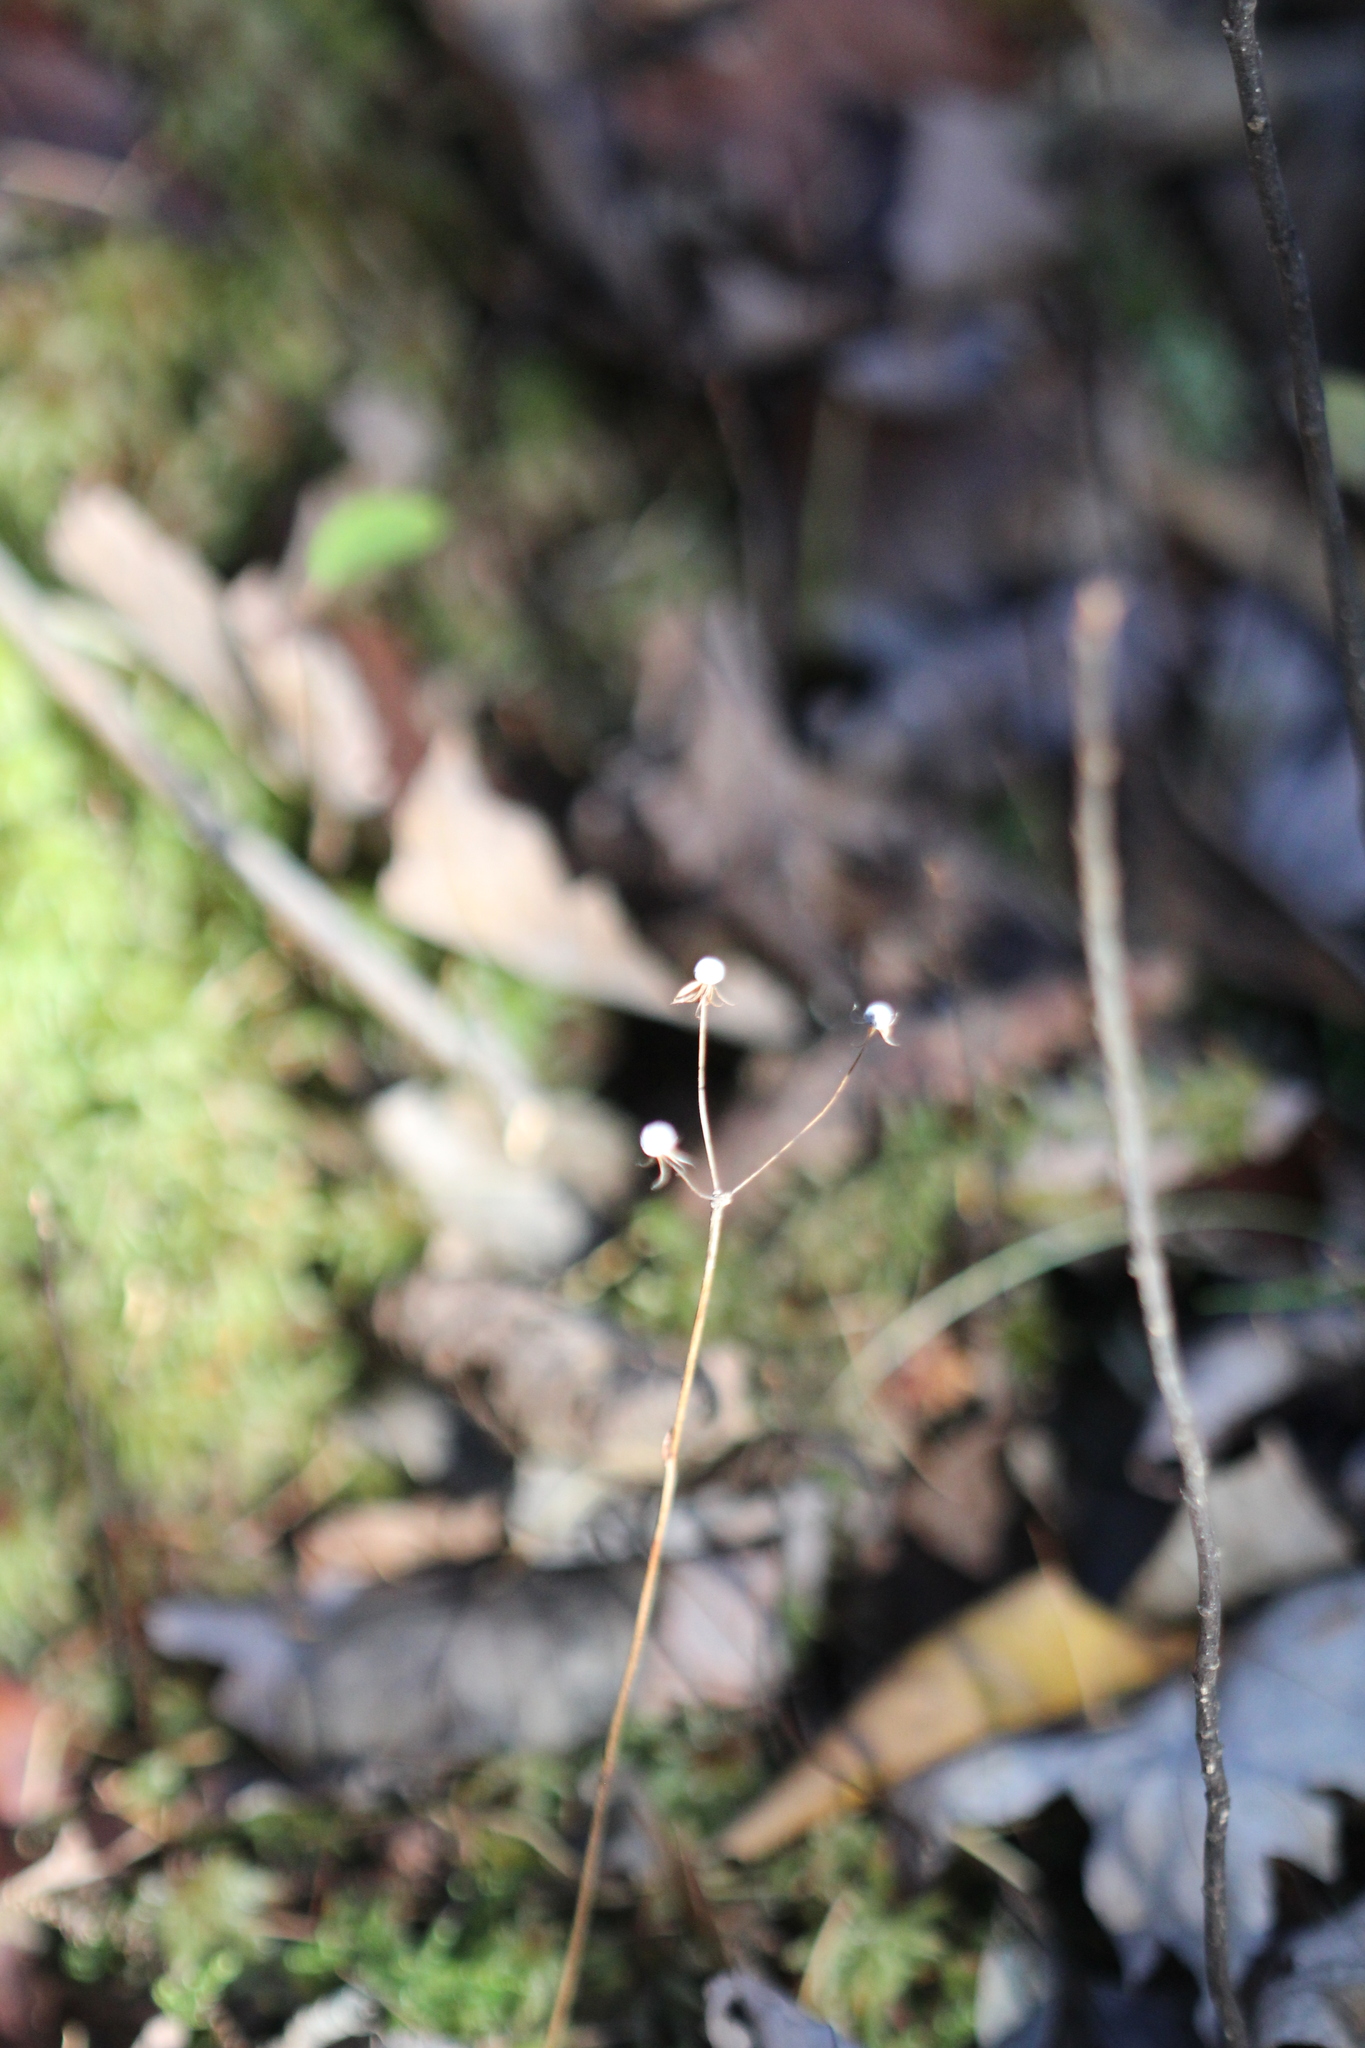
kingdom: Plantae
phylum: Tracheophyta
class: Magnoliopsida
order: Ericales
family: Primulaceae
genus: Lysimachia
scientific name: Lysimachia borealis
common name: American starflower
